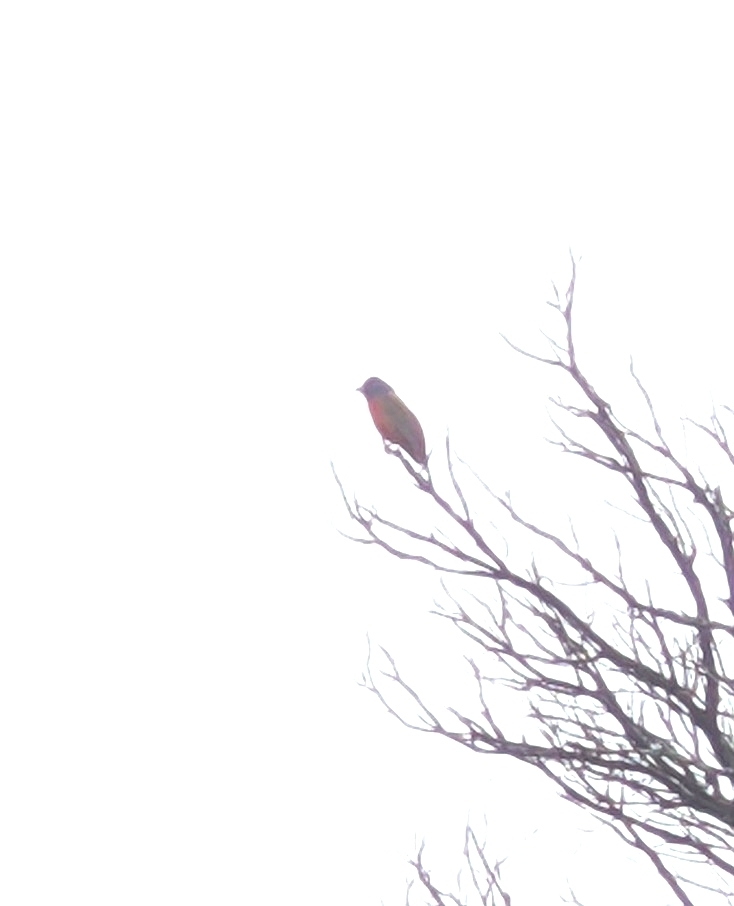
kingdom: Animalia
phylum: Chordata
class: Aves
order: Passeriformes
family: Cardinalidae
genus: Passerina
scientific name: Passerina ciris
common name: Painted bunting
